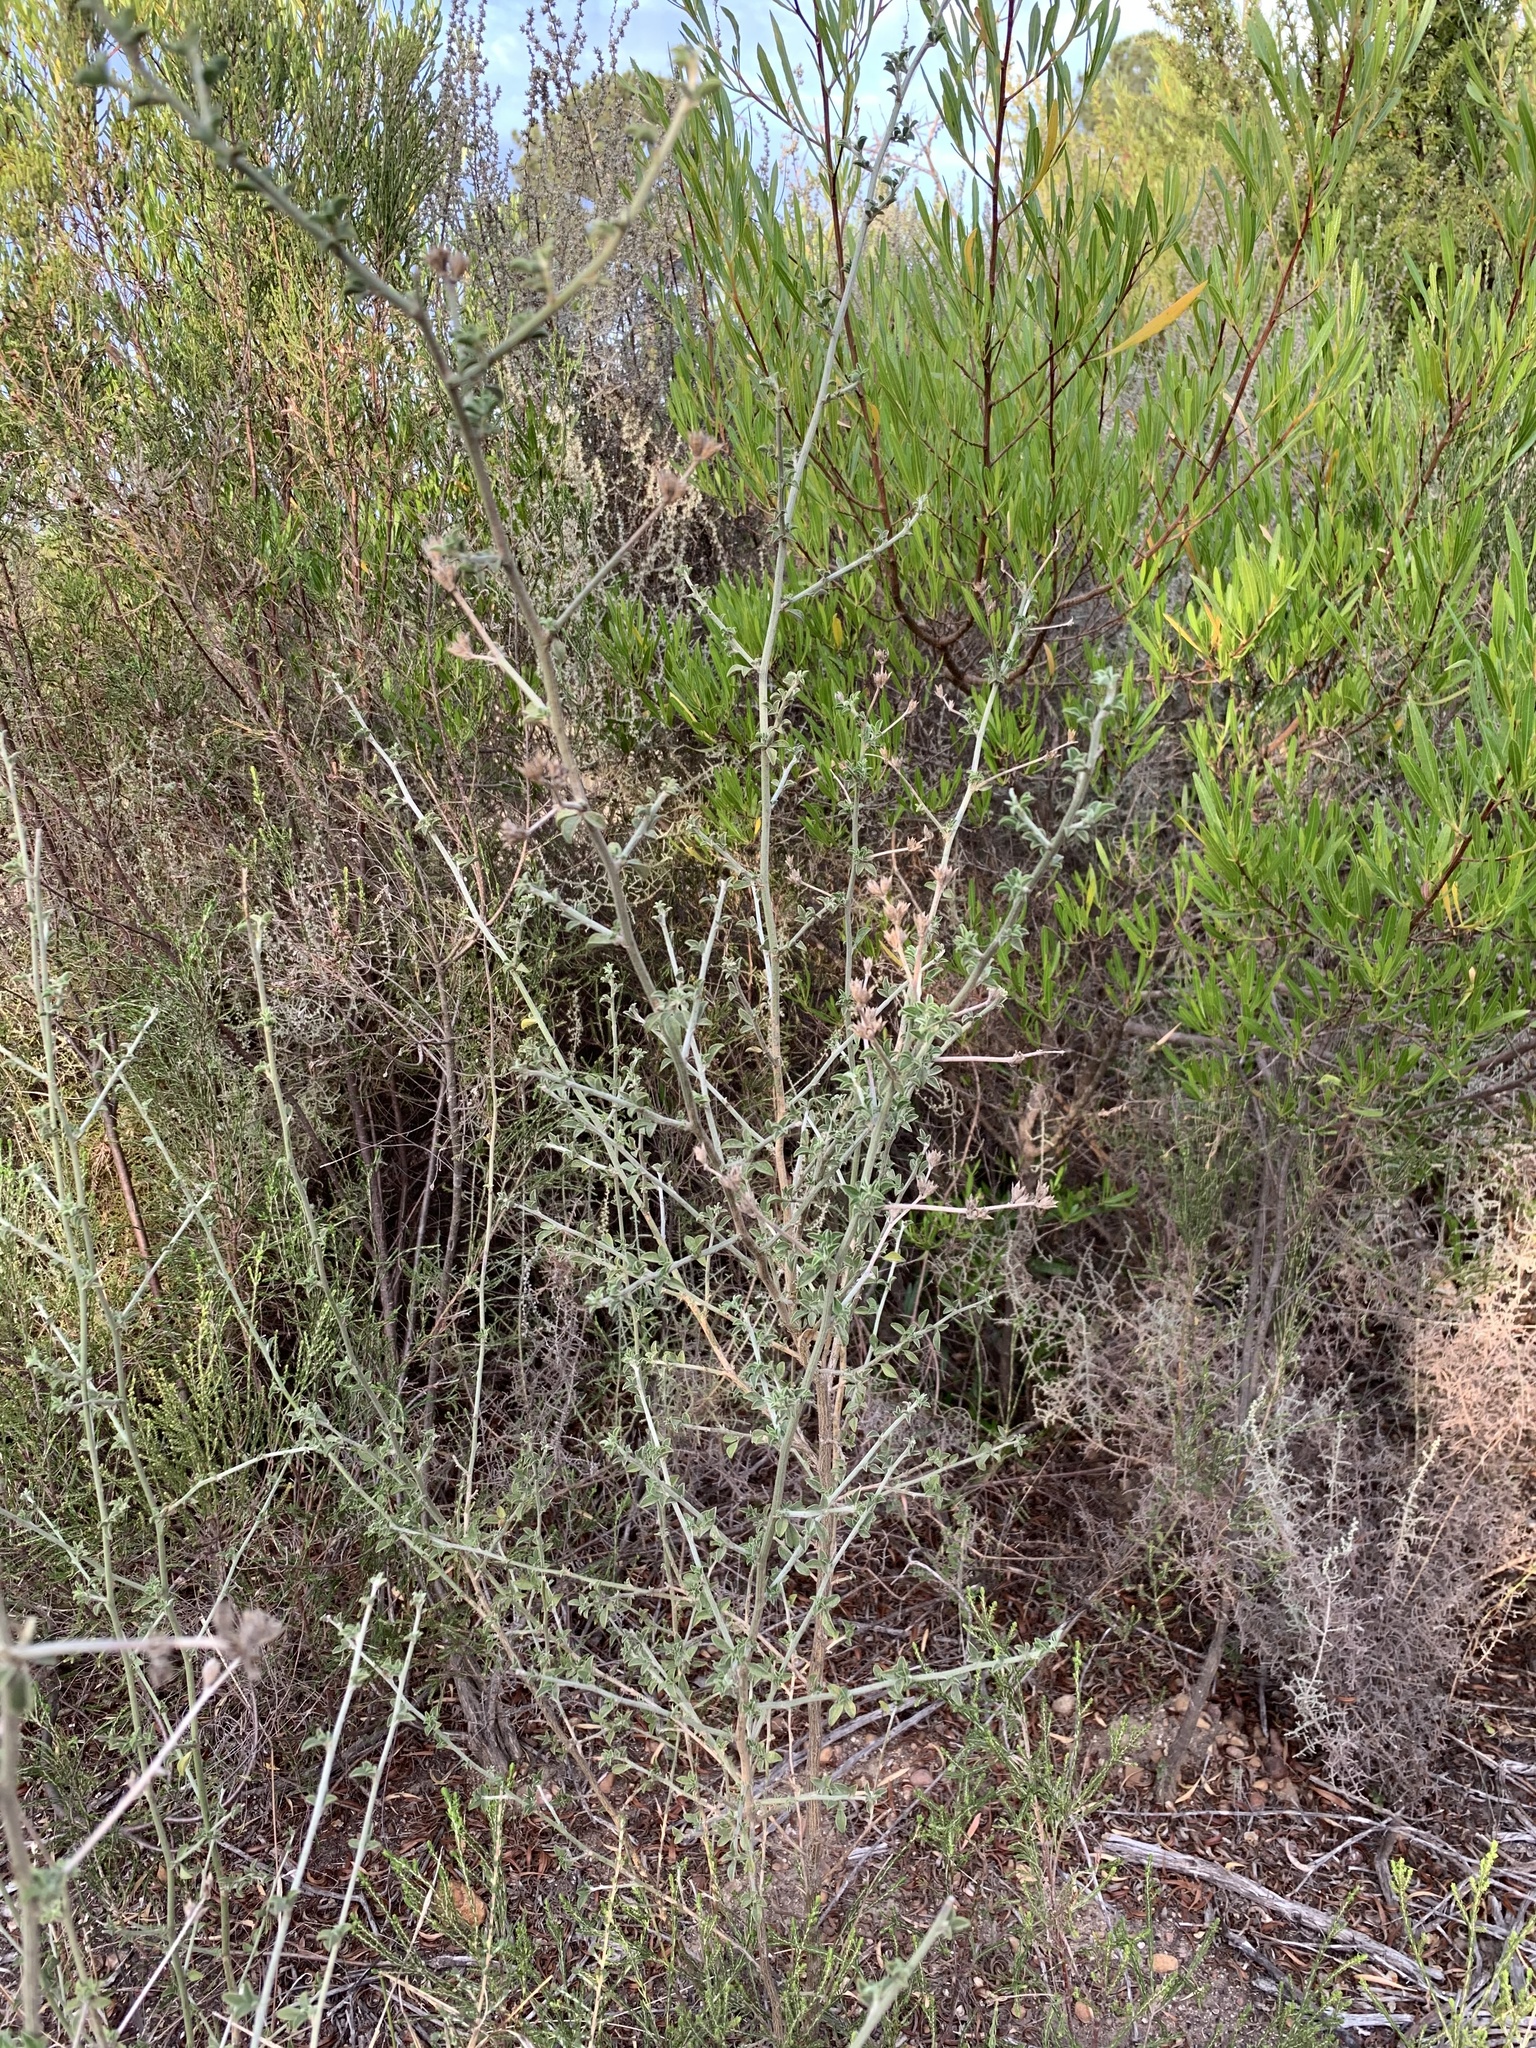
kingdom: Plantae
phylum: Tracheophyta
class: Magnoliopsida
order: Fabales
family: Fabaceae
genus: Psoralea
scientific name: Psoralea hirta
